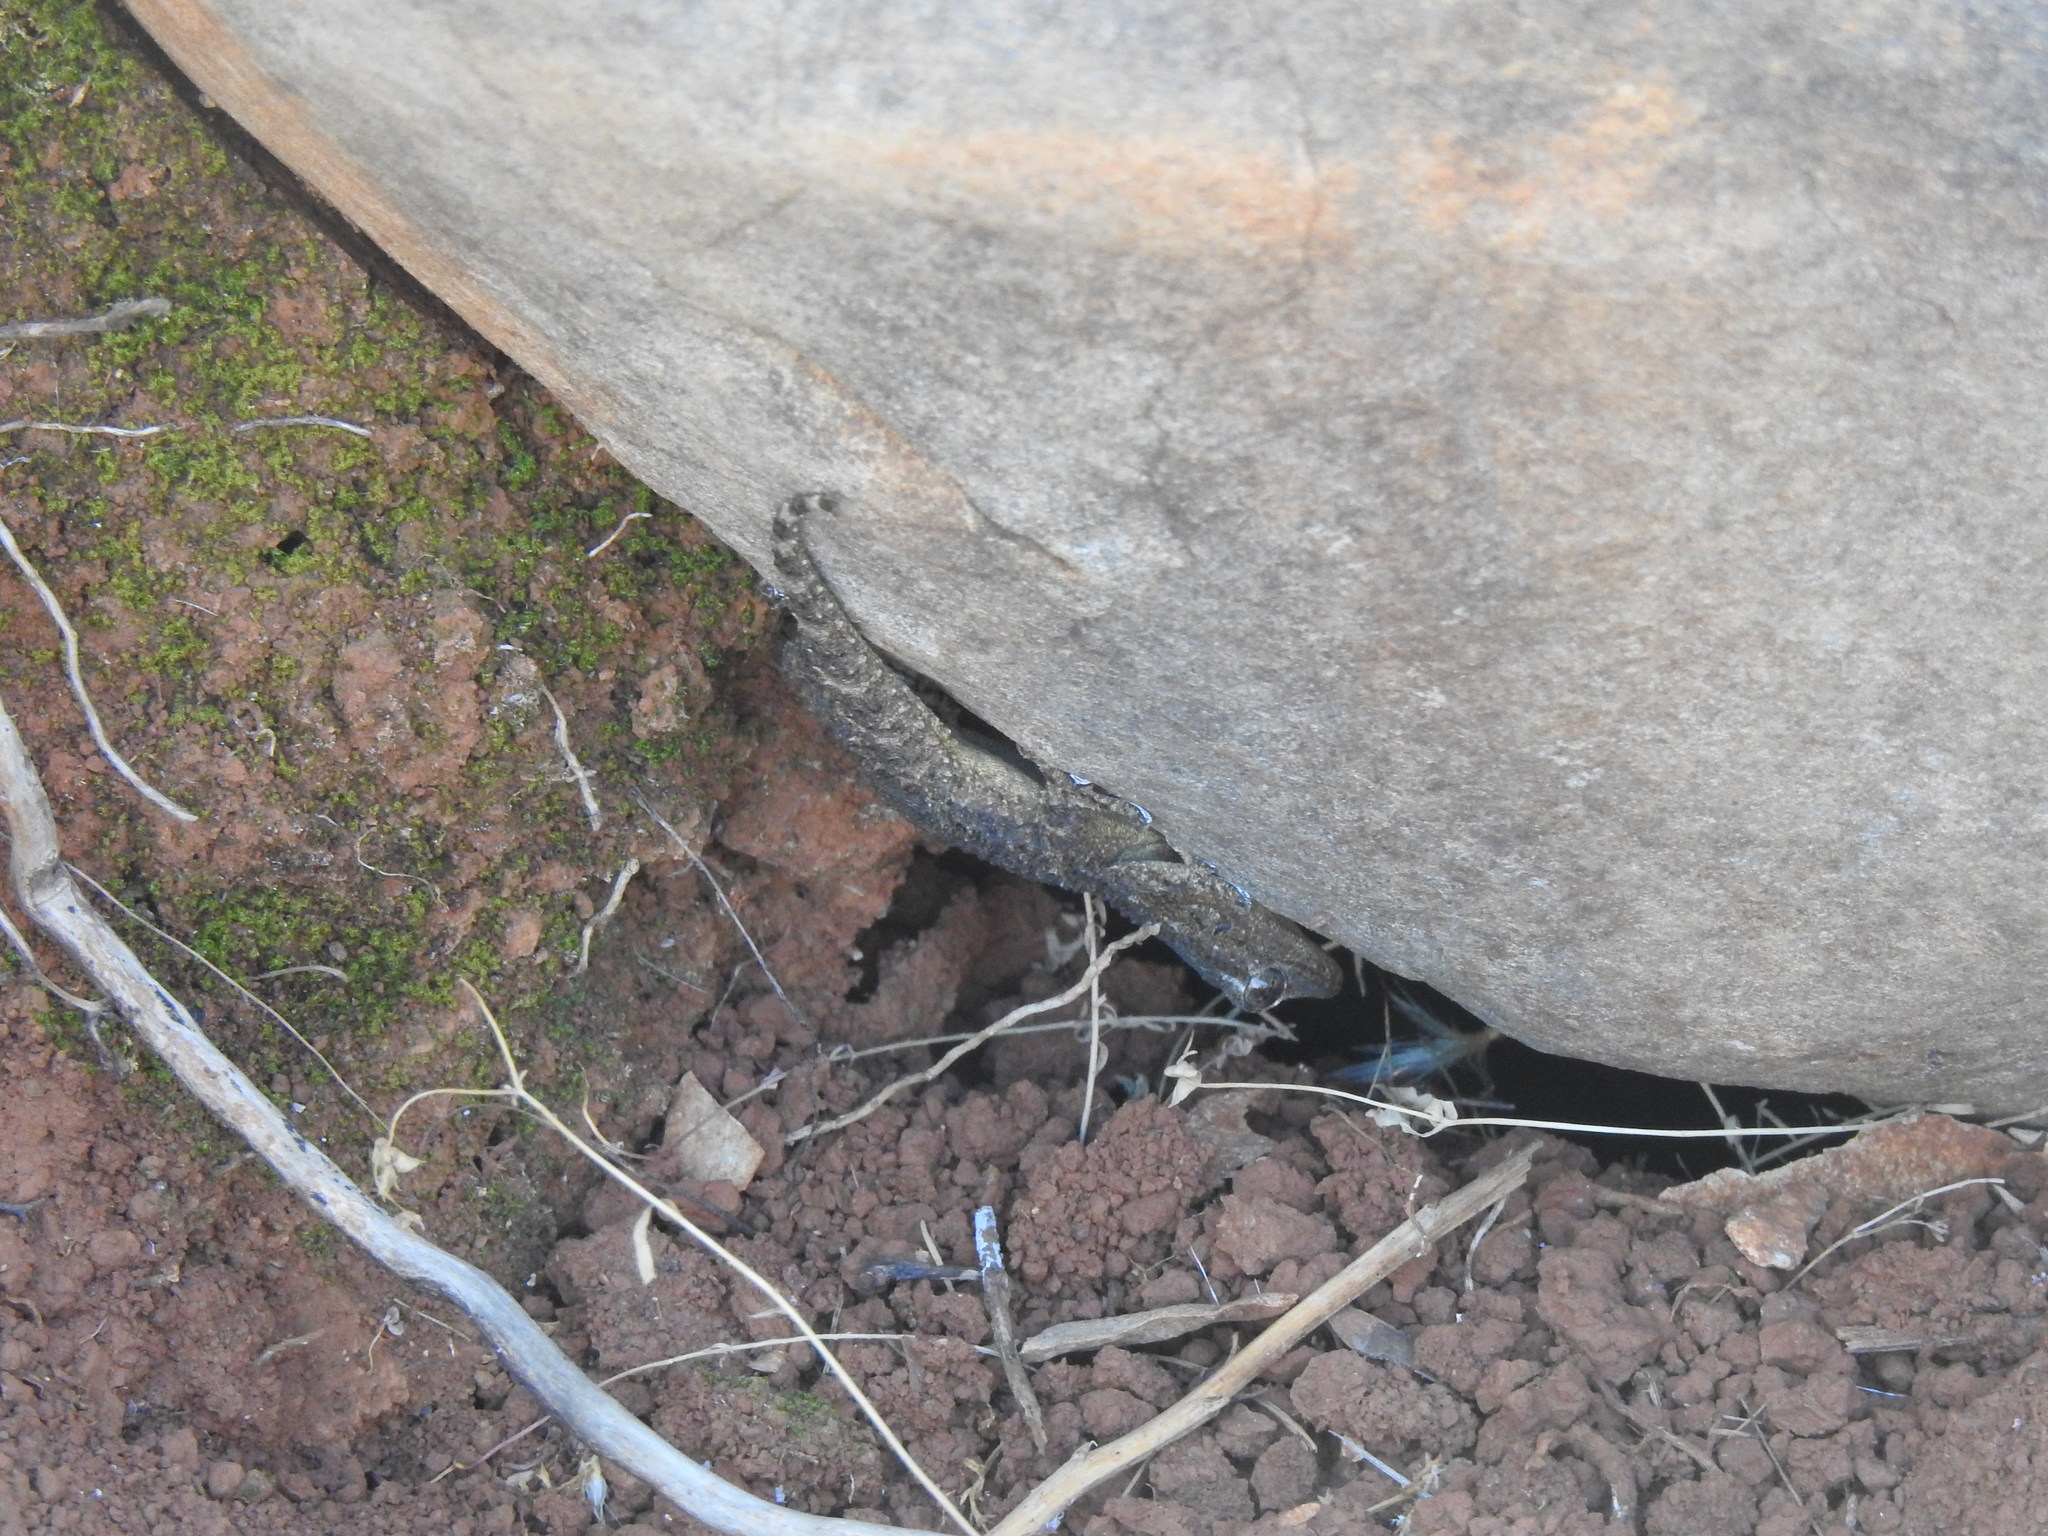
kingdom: Animalia
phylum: Chordata
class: Squamata
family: Phyllodactylidae
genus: Tarentola
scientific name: Tarentola mauritanica
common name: Moorish gecko
